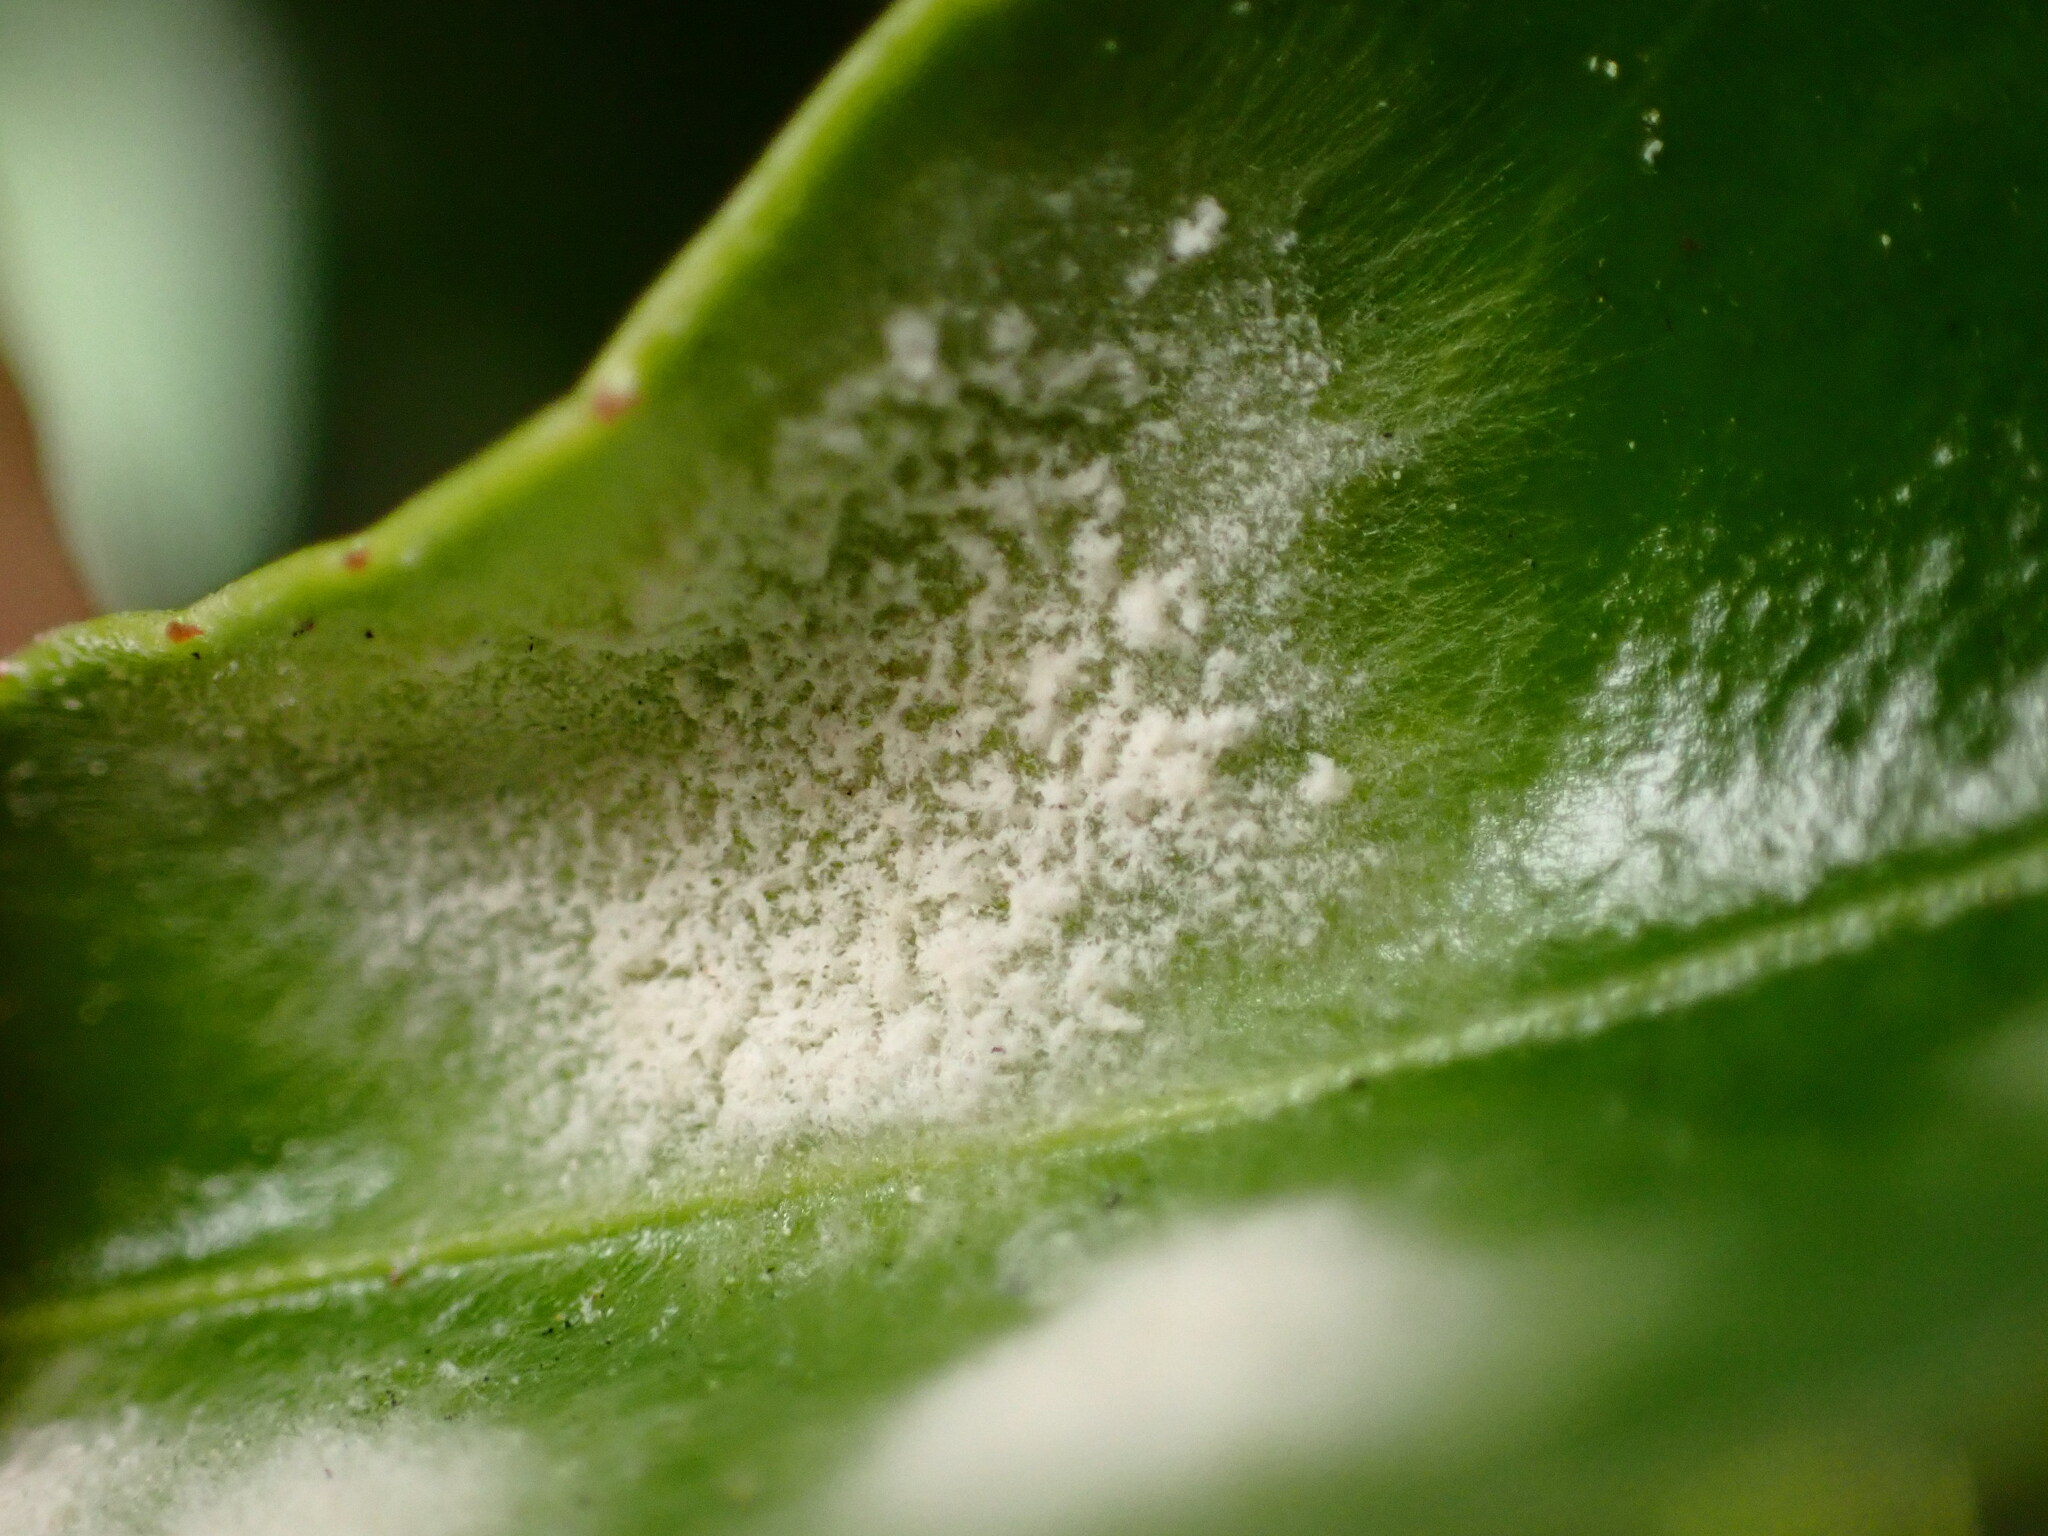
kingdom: Fungi
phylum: Ascomycota
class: Leotiomycetes
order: Helotiales
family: Erysiphaceae
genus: Erysiphe
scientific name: Erysiphe euonymicola
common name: Spindletree mildew
